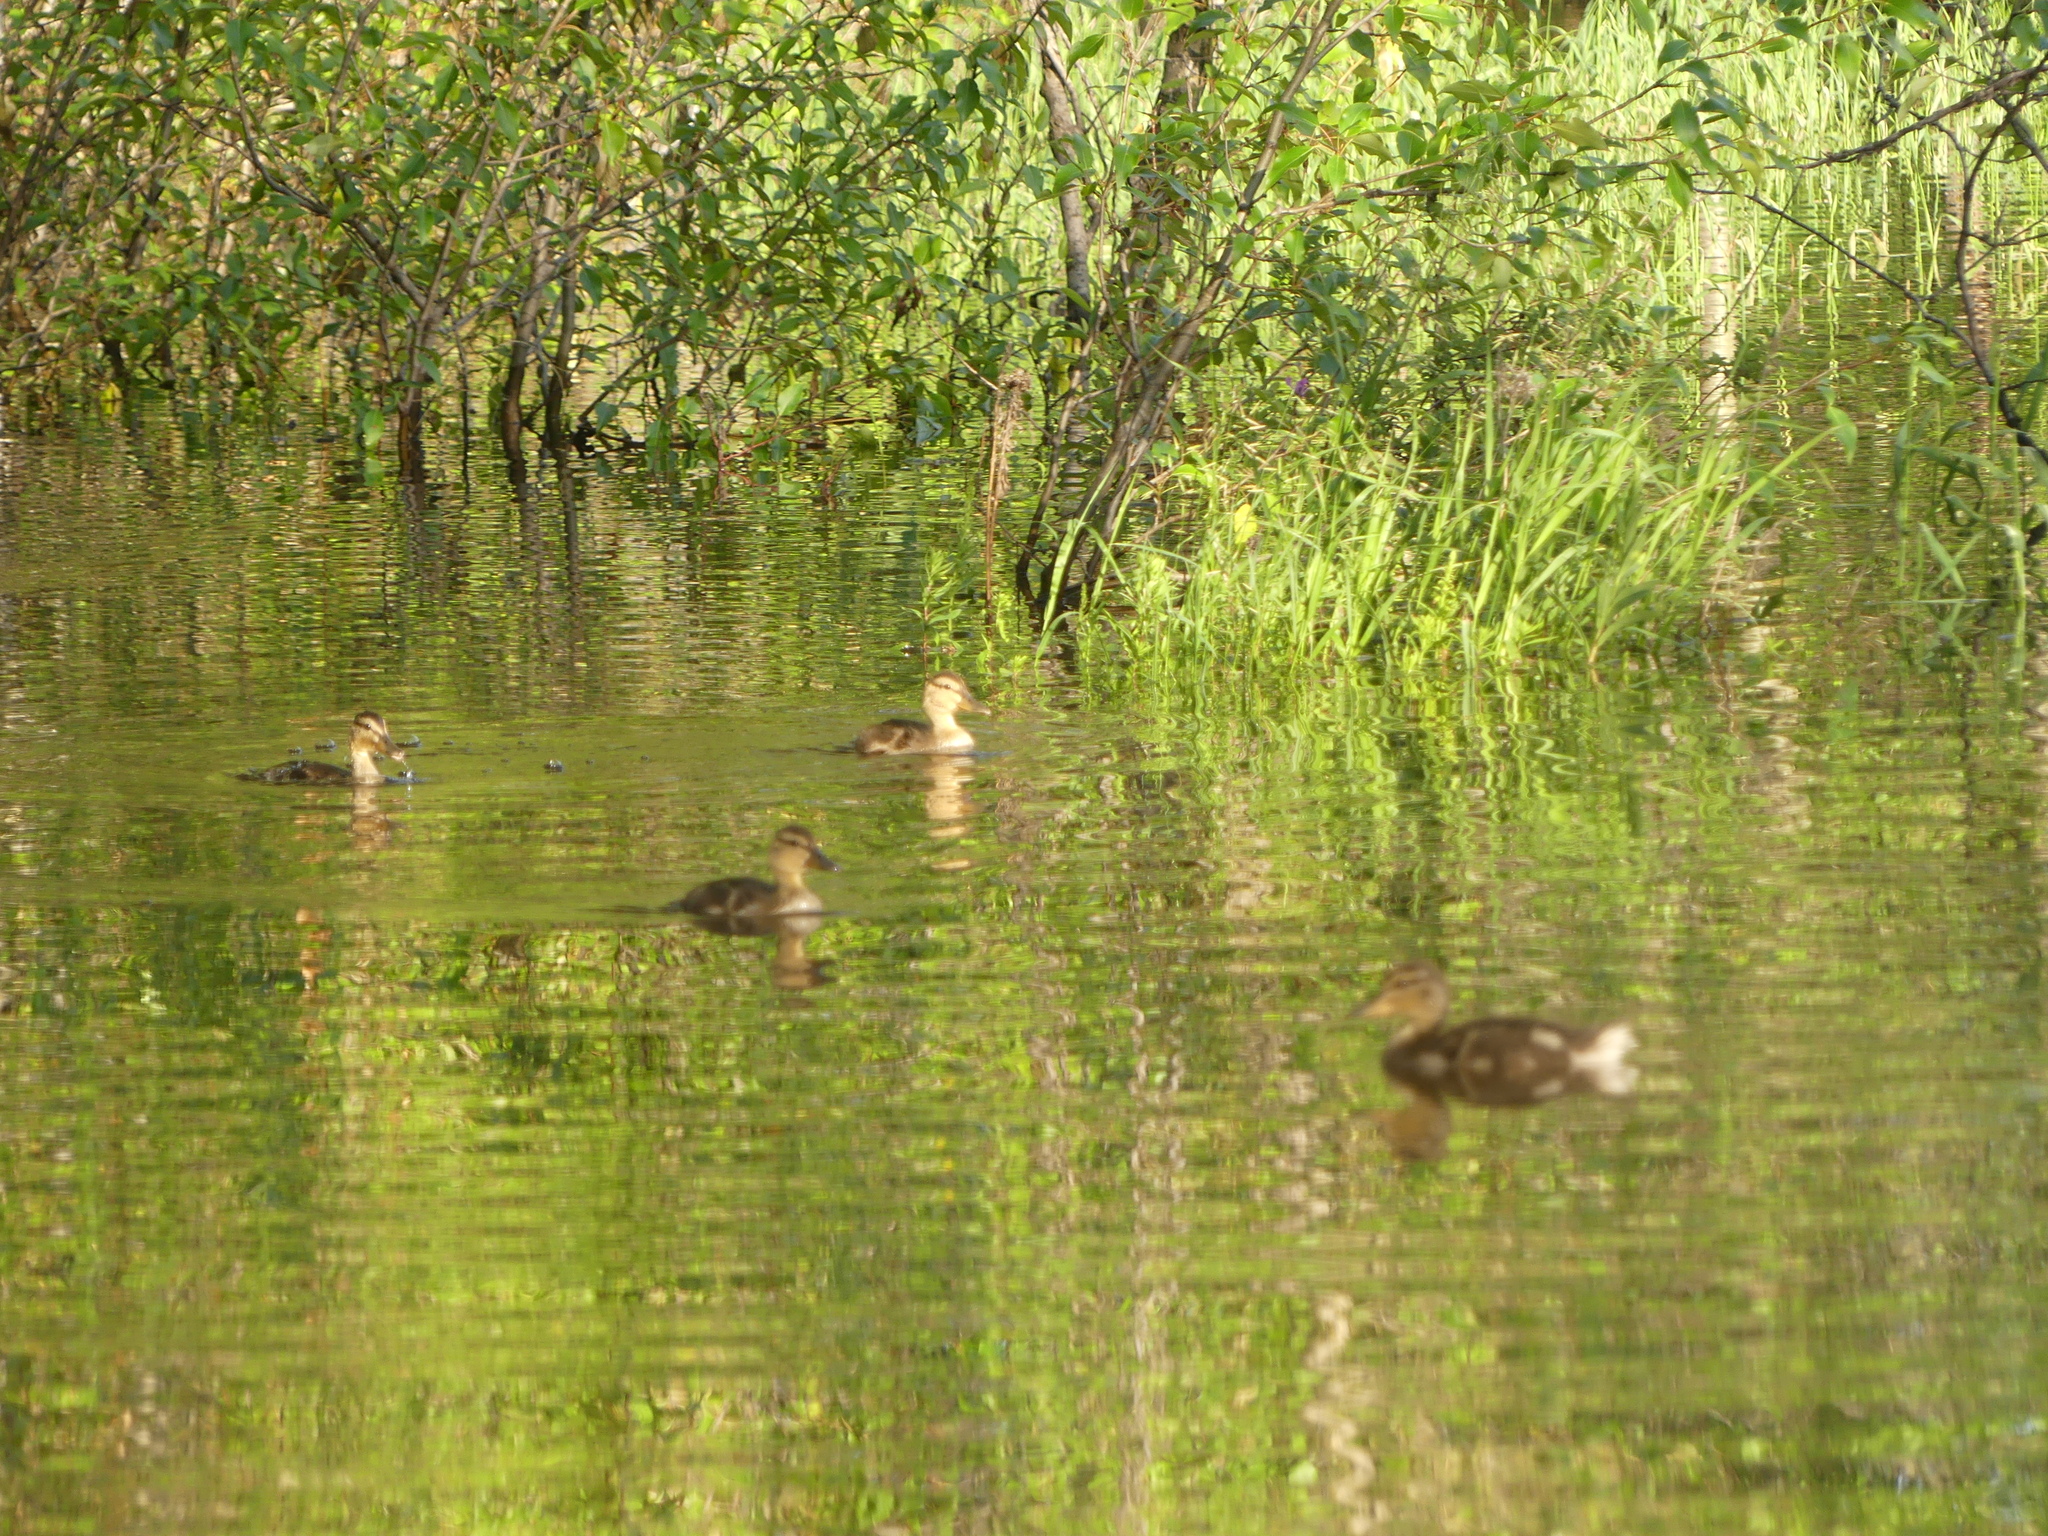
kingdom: Animalia
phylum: Chordata
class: Aves
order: Anseriformes
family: Anatidae
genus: Anas
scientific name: Anas platyrhynchos
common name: Mallard
